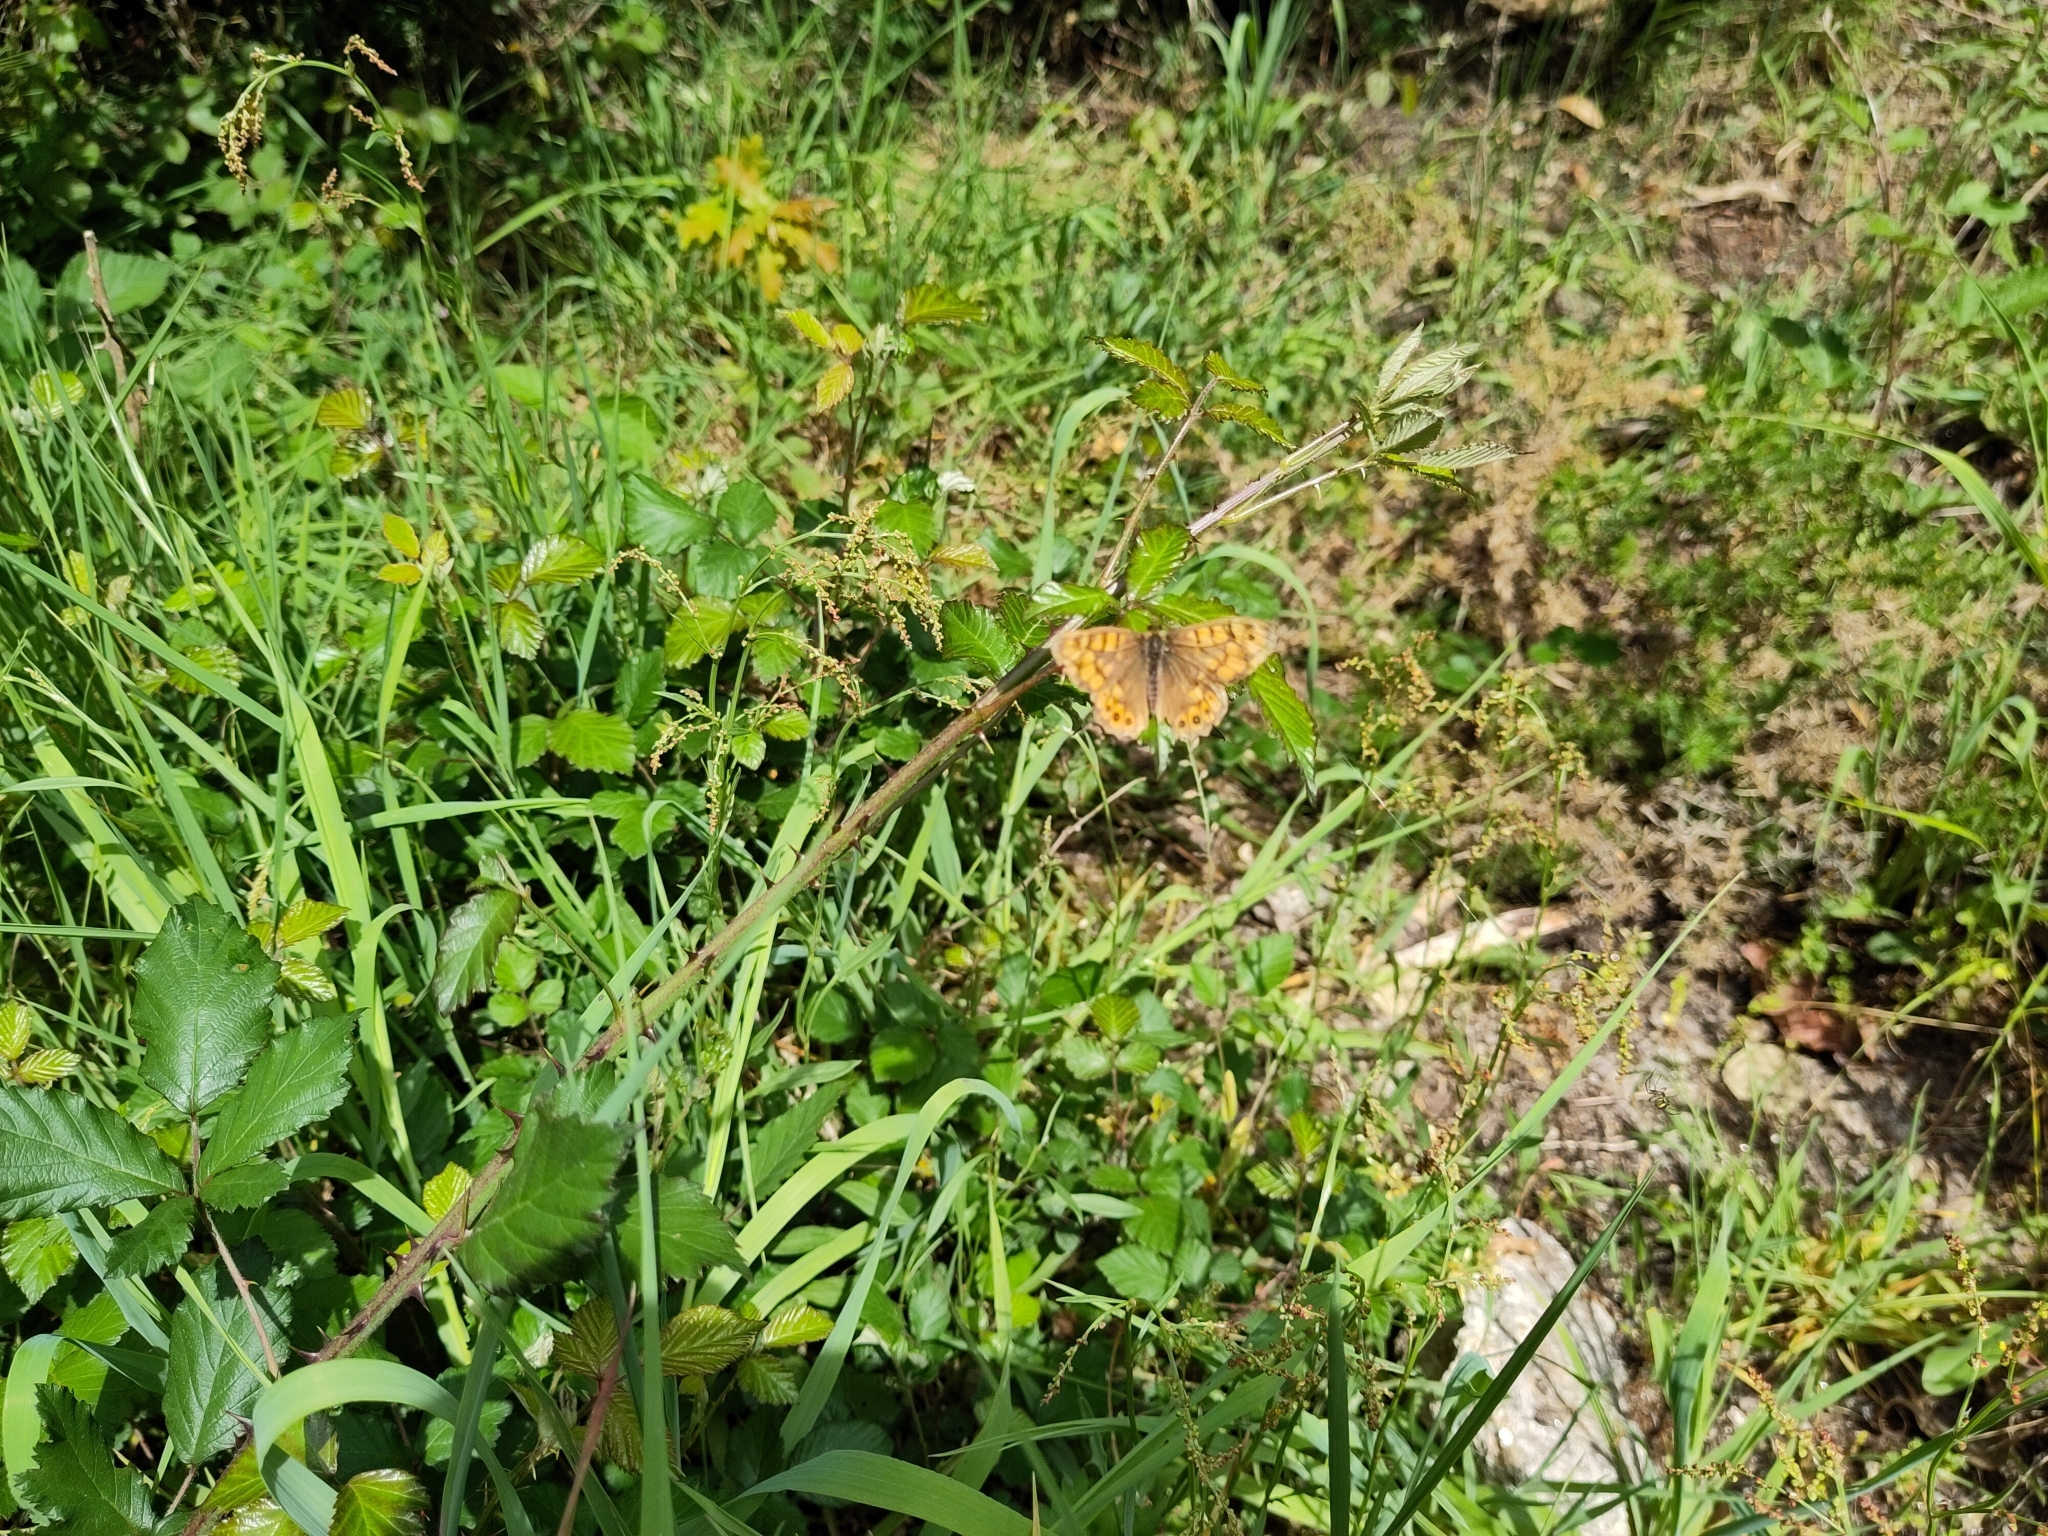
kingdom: Animalia
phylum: Arthropoda
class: Insecta
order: Lepidoptera
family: Nymphalidae
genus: Pararge
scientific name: Pararge Lasiommata megera
